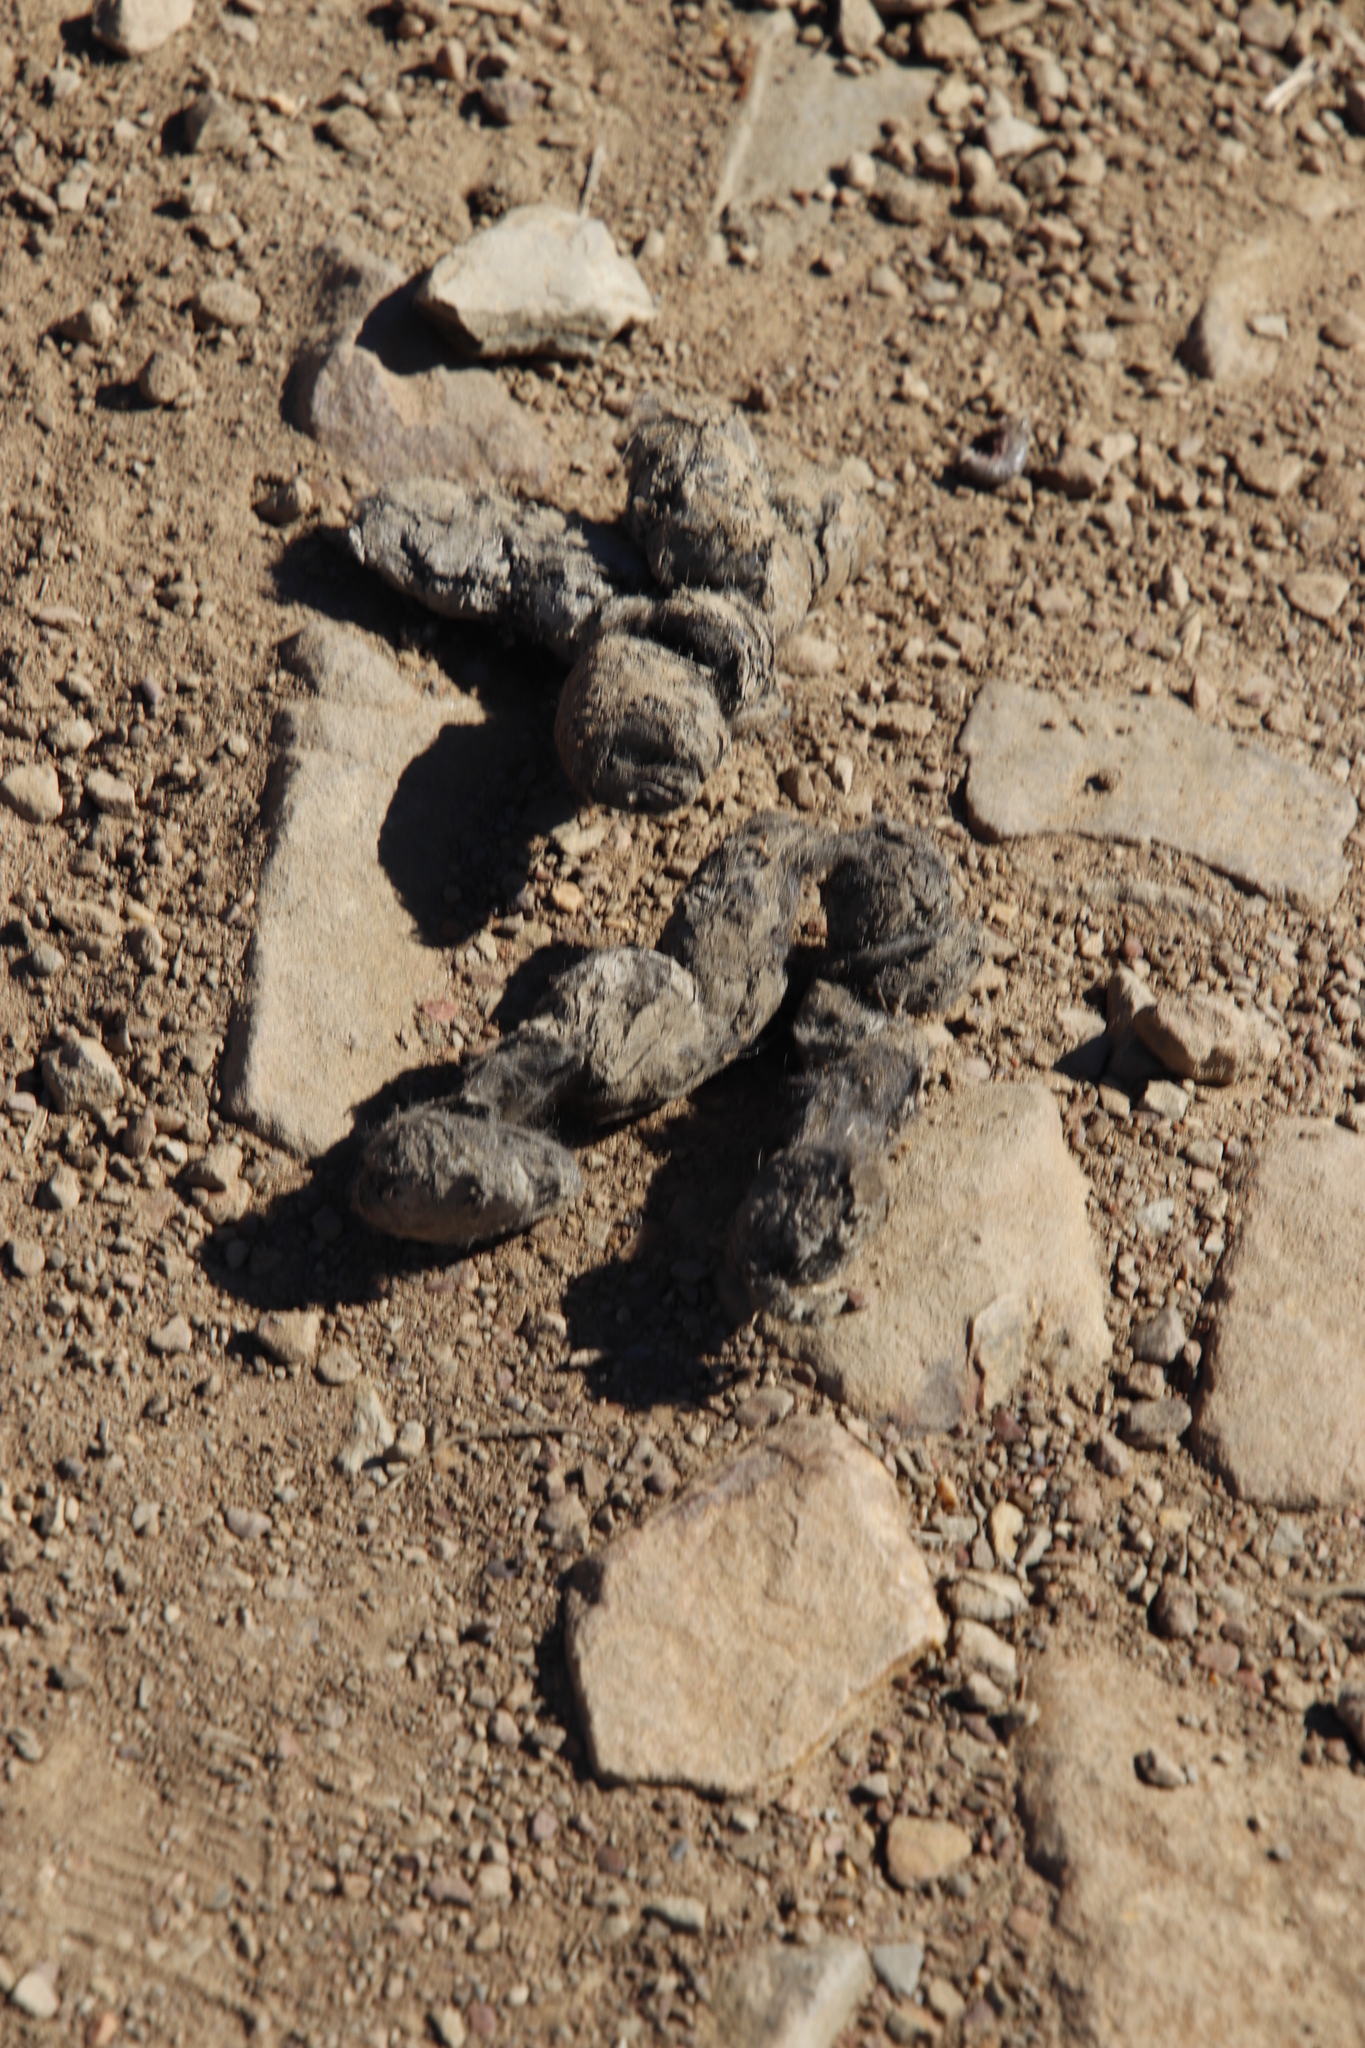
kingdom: Animalia
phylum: Chordata
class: Mammalia
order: Carnivora
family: Felidae
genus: Caracal
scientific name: Caracal caracal
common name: Caracal
